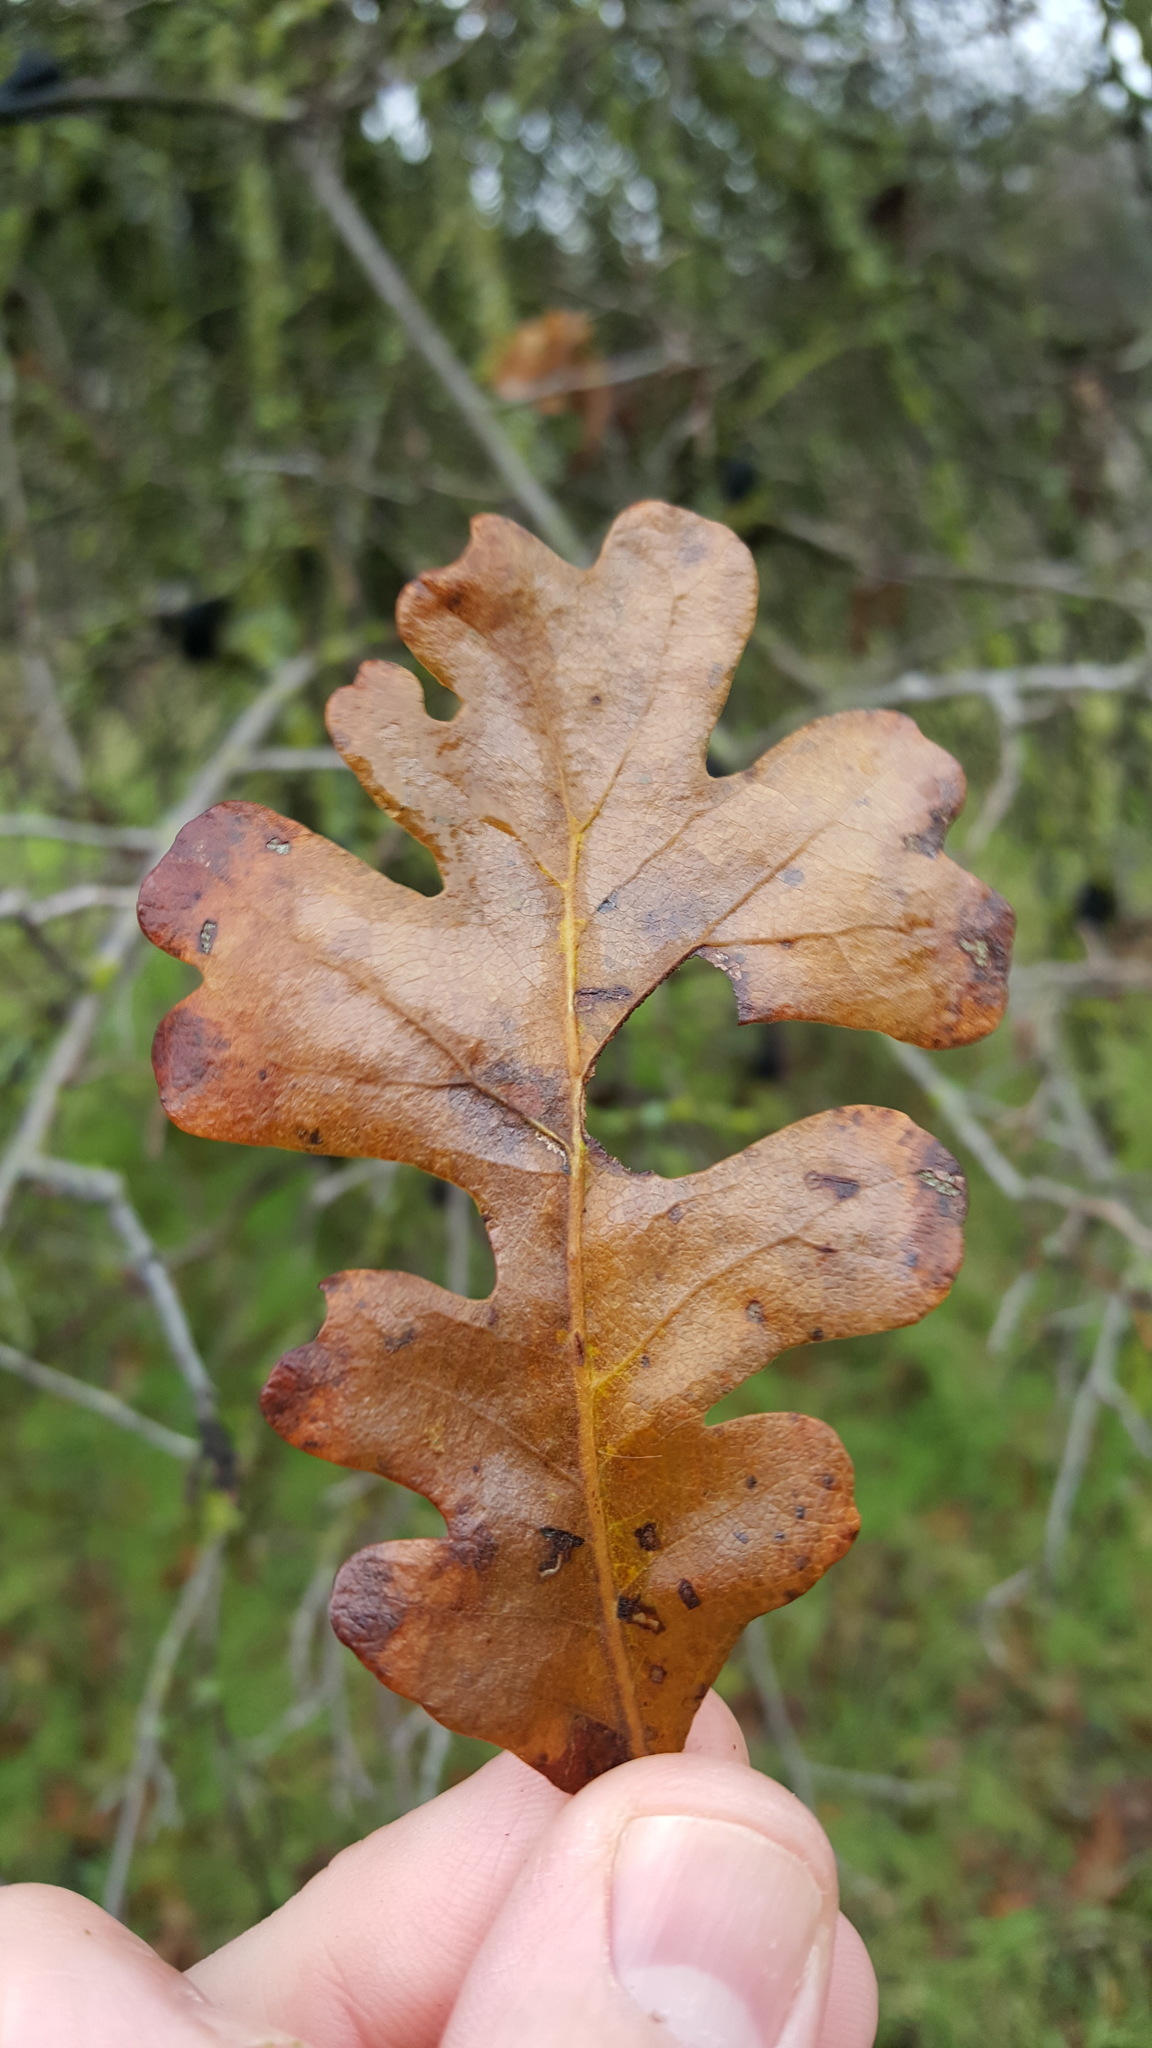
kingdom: Plantae
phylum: Tracheophyta
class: Magnoliopsida
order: Fagales
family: Fagaceae
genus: Quercus
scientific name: Quercus lobata
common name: Valley oak
